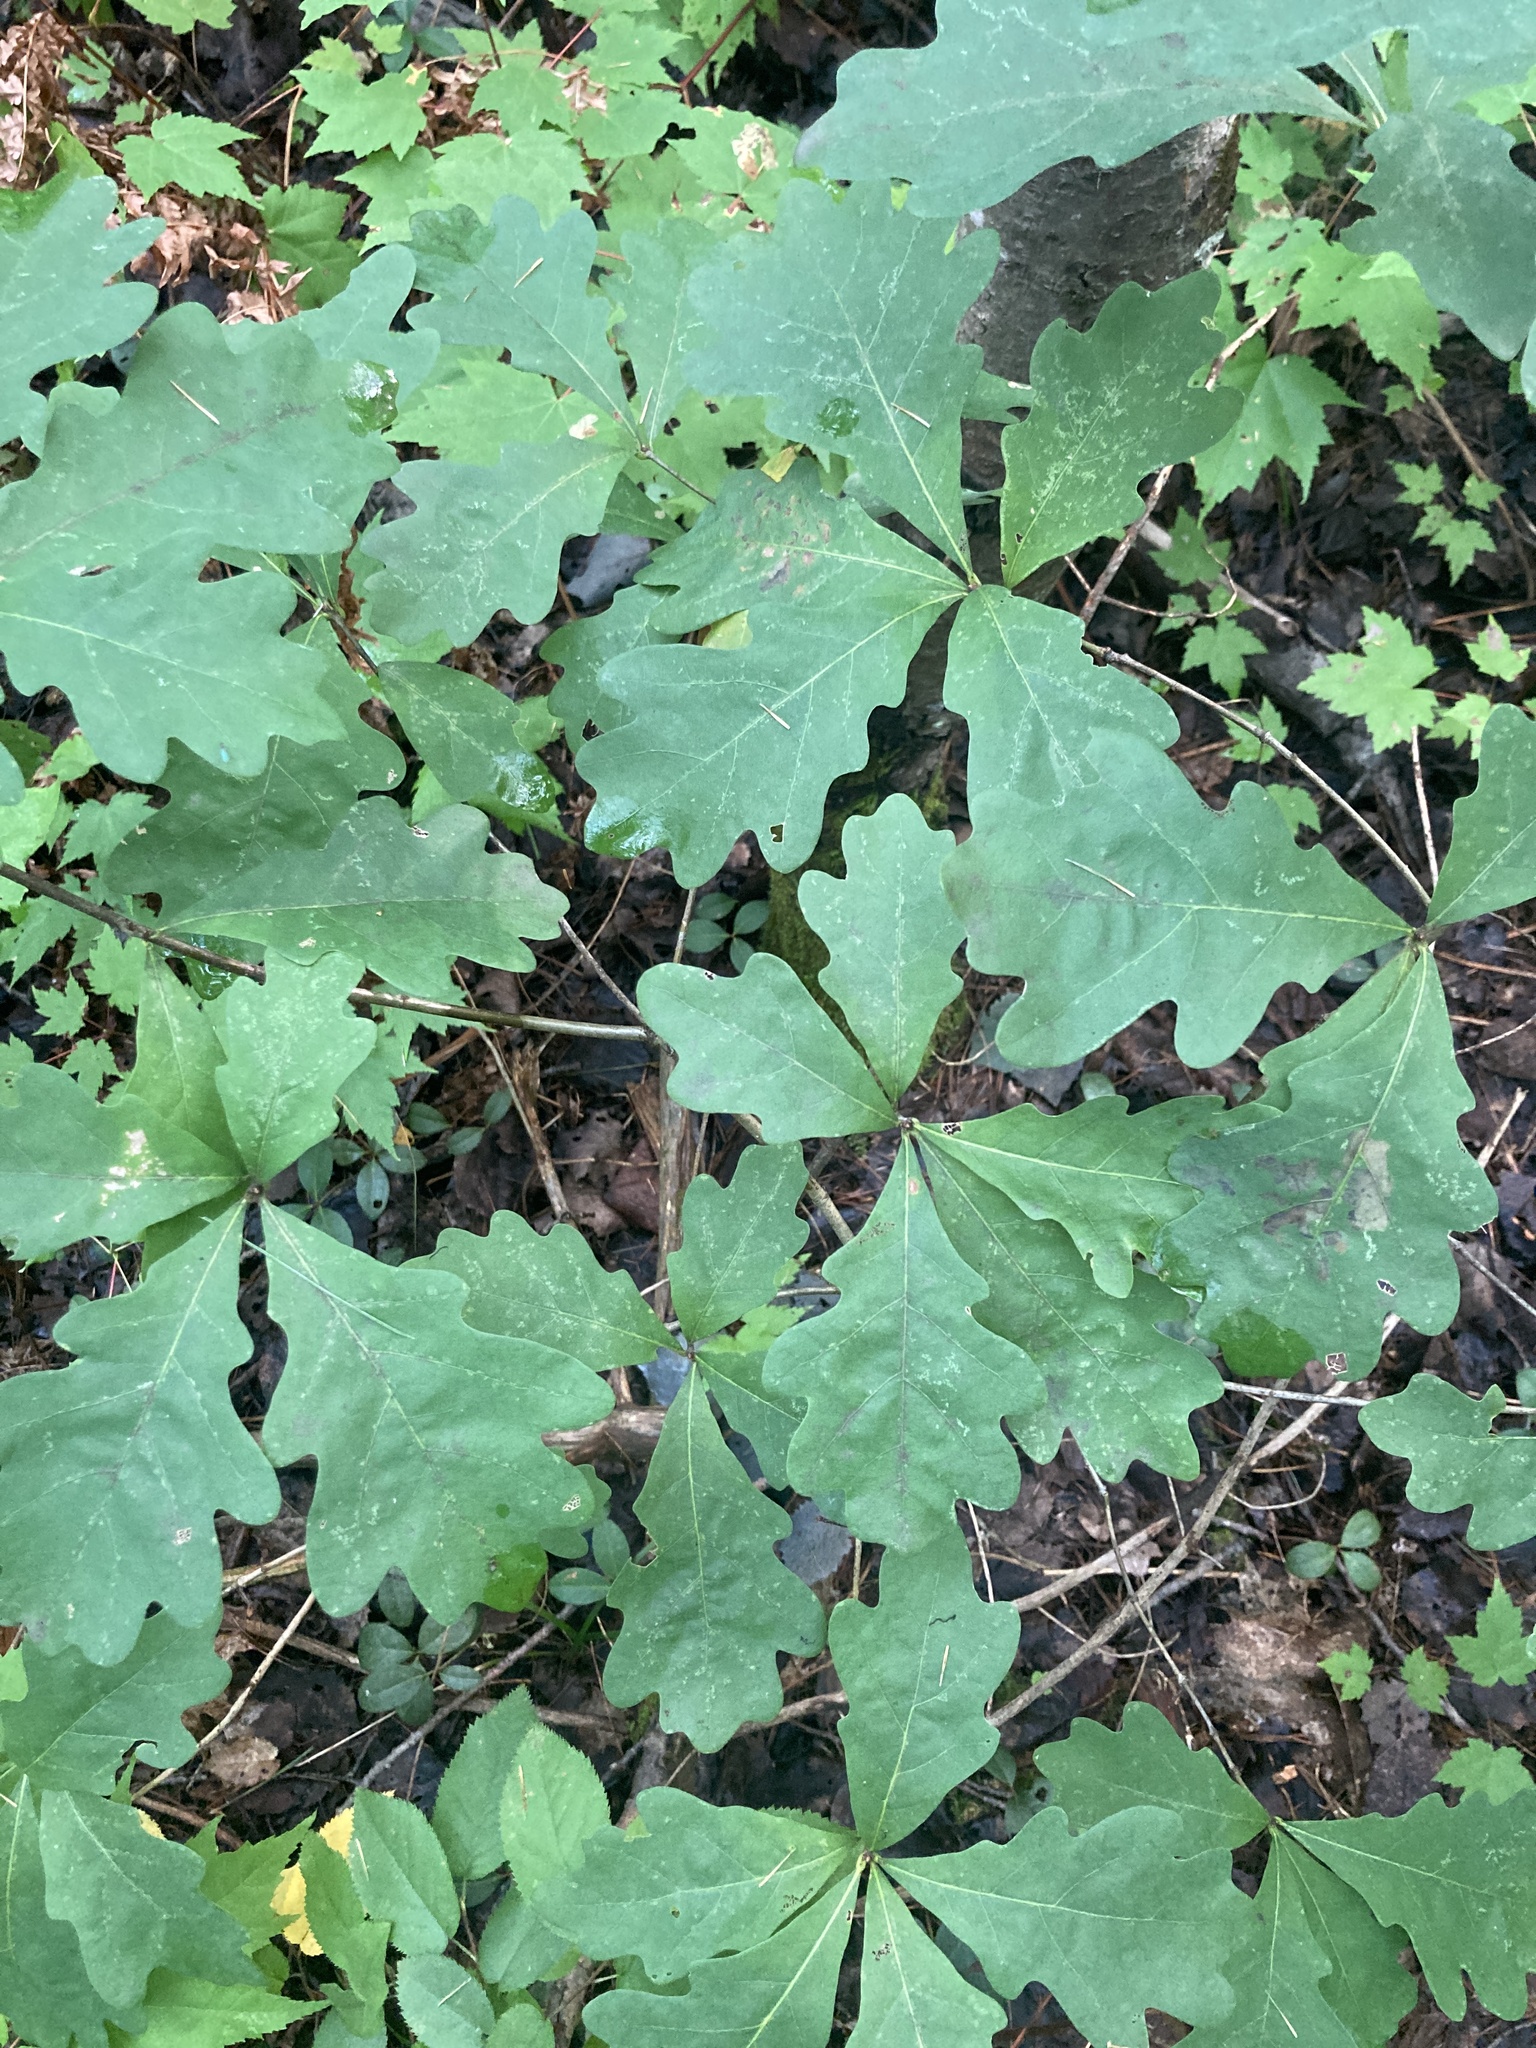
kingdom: Plantae
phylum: Tracheophyta
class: Magnoliopsida
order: Fagales
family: Fagaceae
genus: Quercus
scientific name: Quercus alba
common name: White oak
